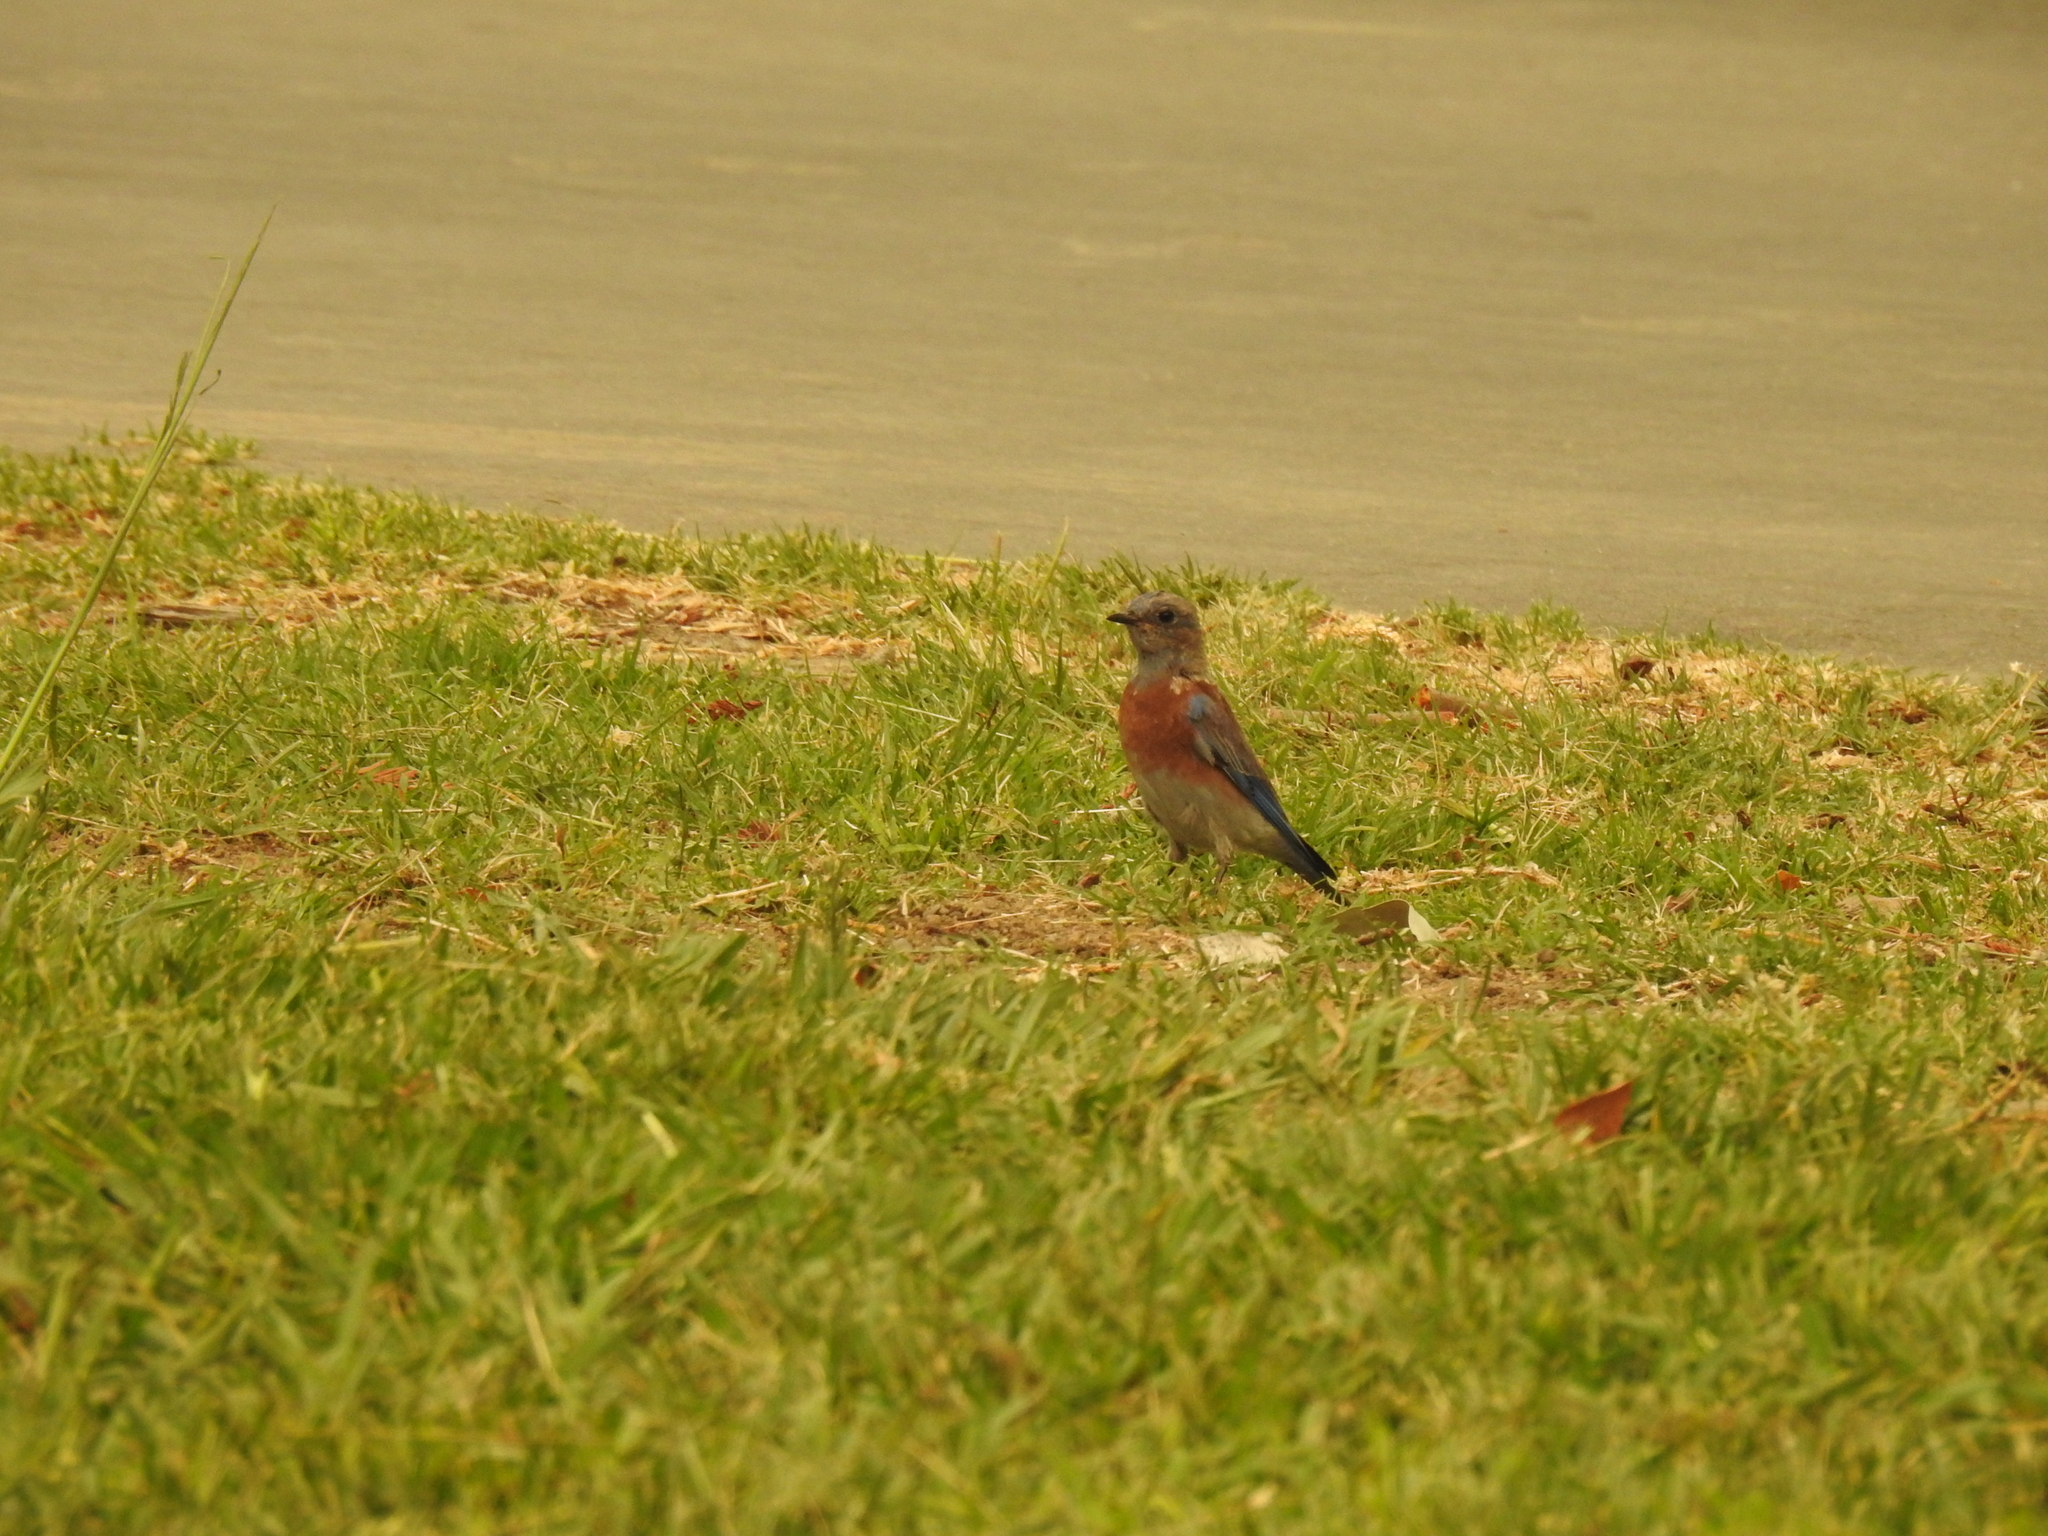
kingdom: Animalia
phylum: Chordata
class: Aves
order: Passeriformes
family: Turdidae
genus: Sialia
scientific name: Sialia mexicana
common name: Western bluebird
